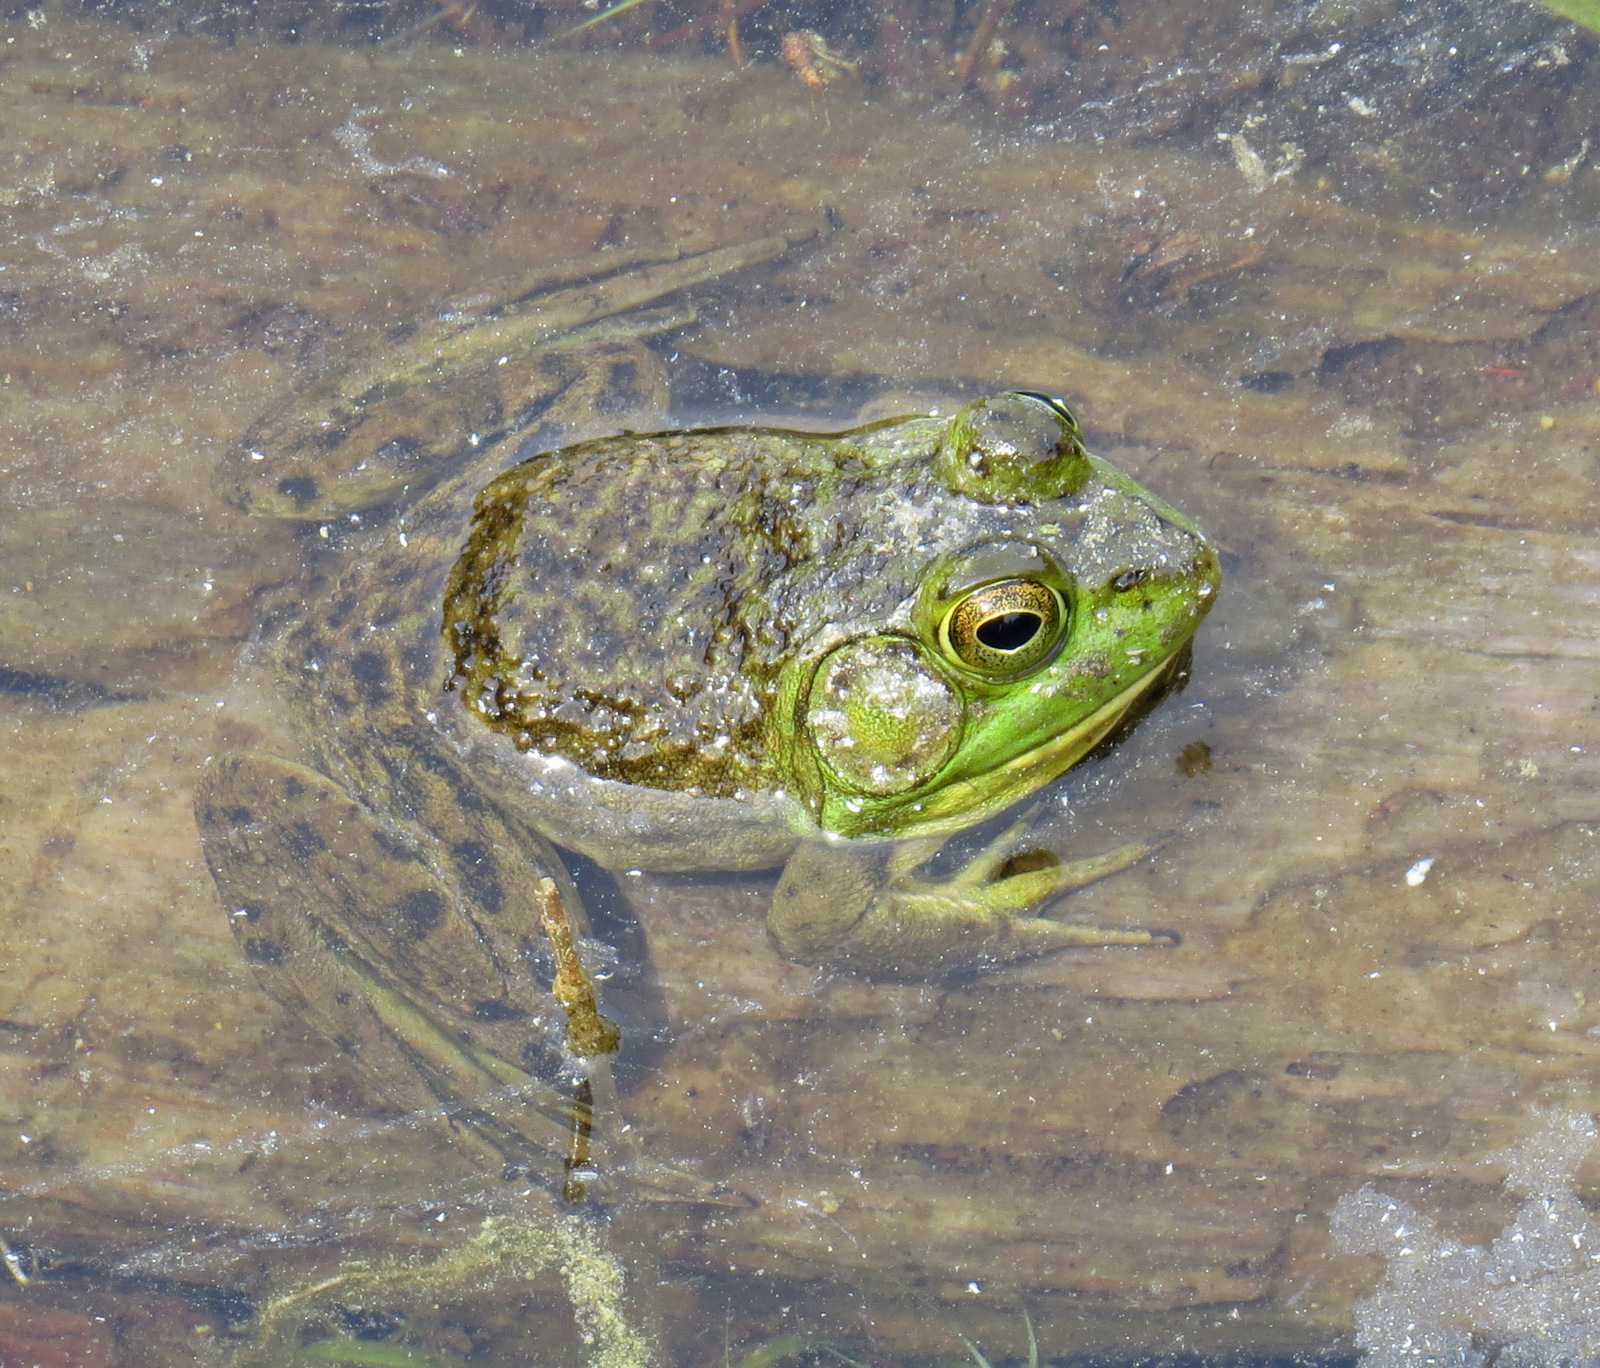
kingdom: Animalia
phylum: Chordata
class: Amphibia
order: Anura
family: Ranidae
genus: Lithobates
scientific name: Lithobates catesbeianus
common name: American bullfrog
